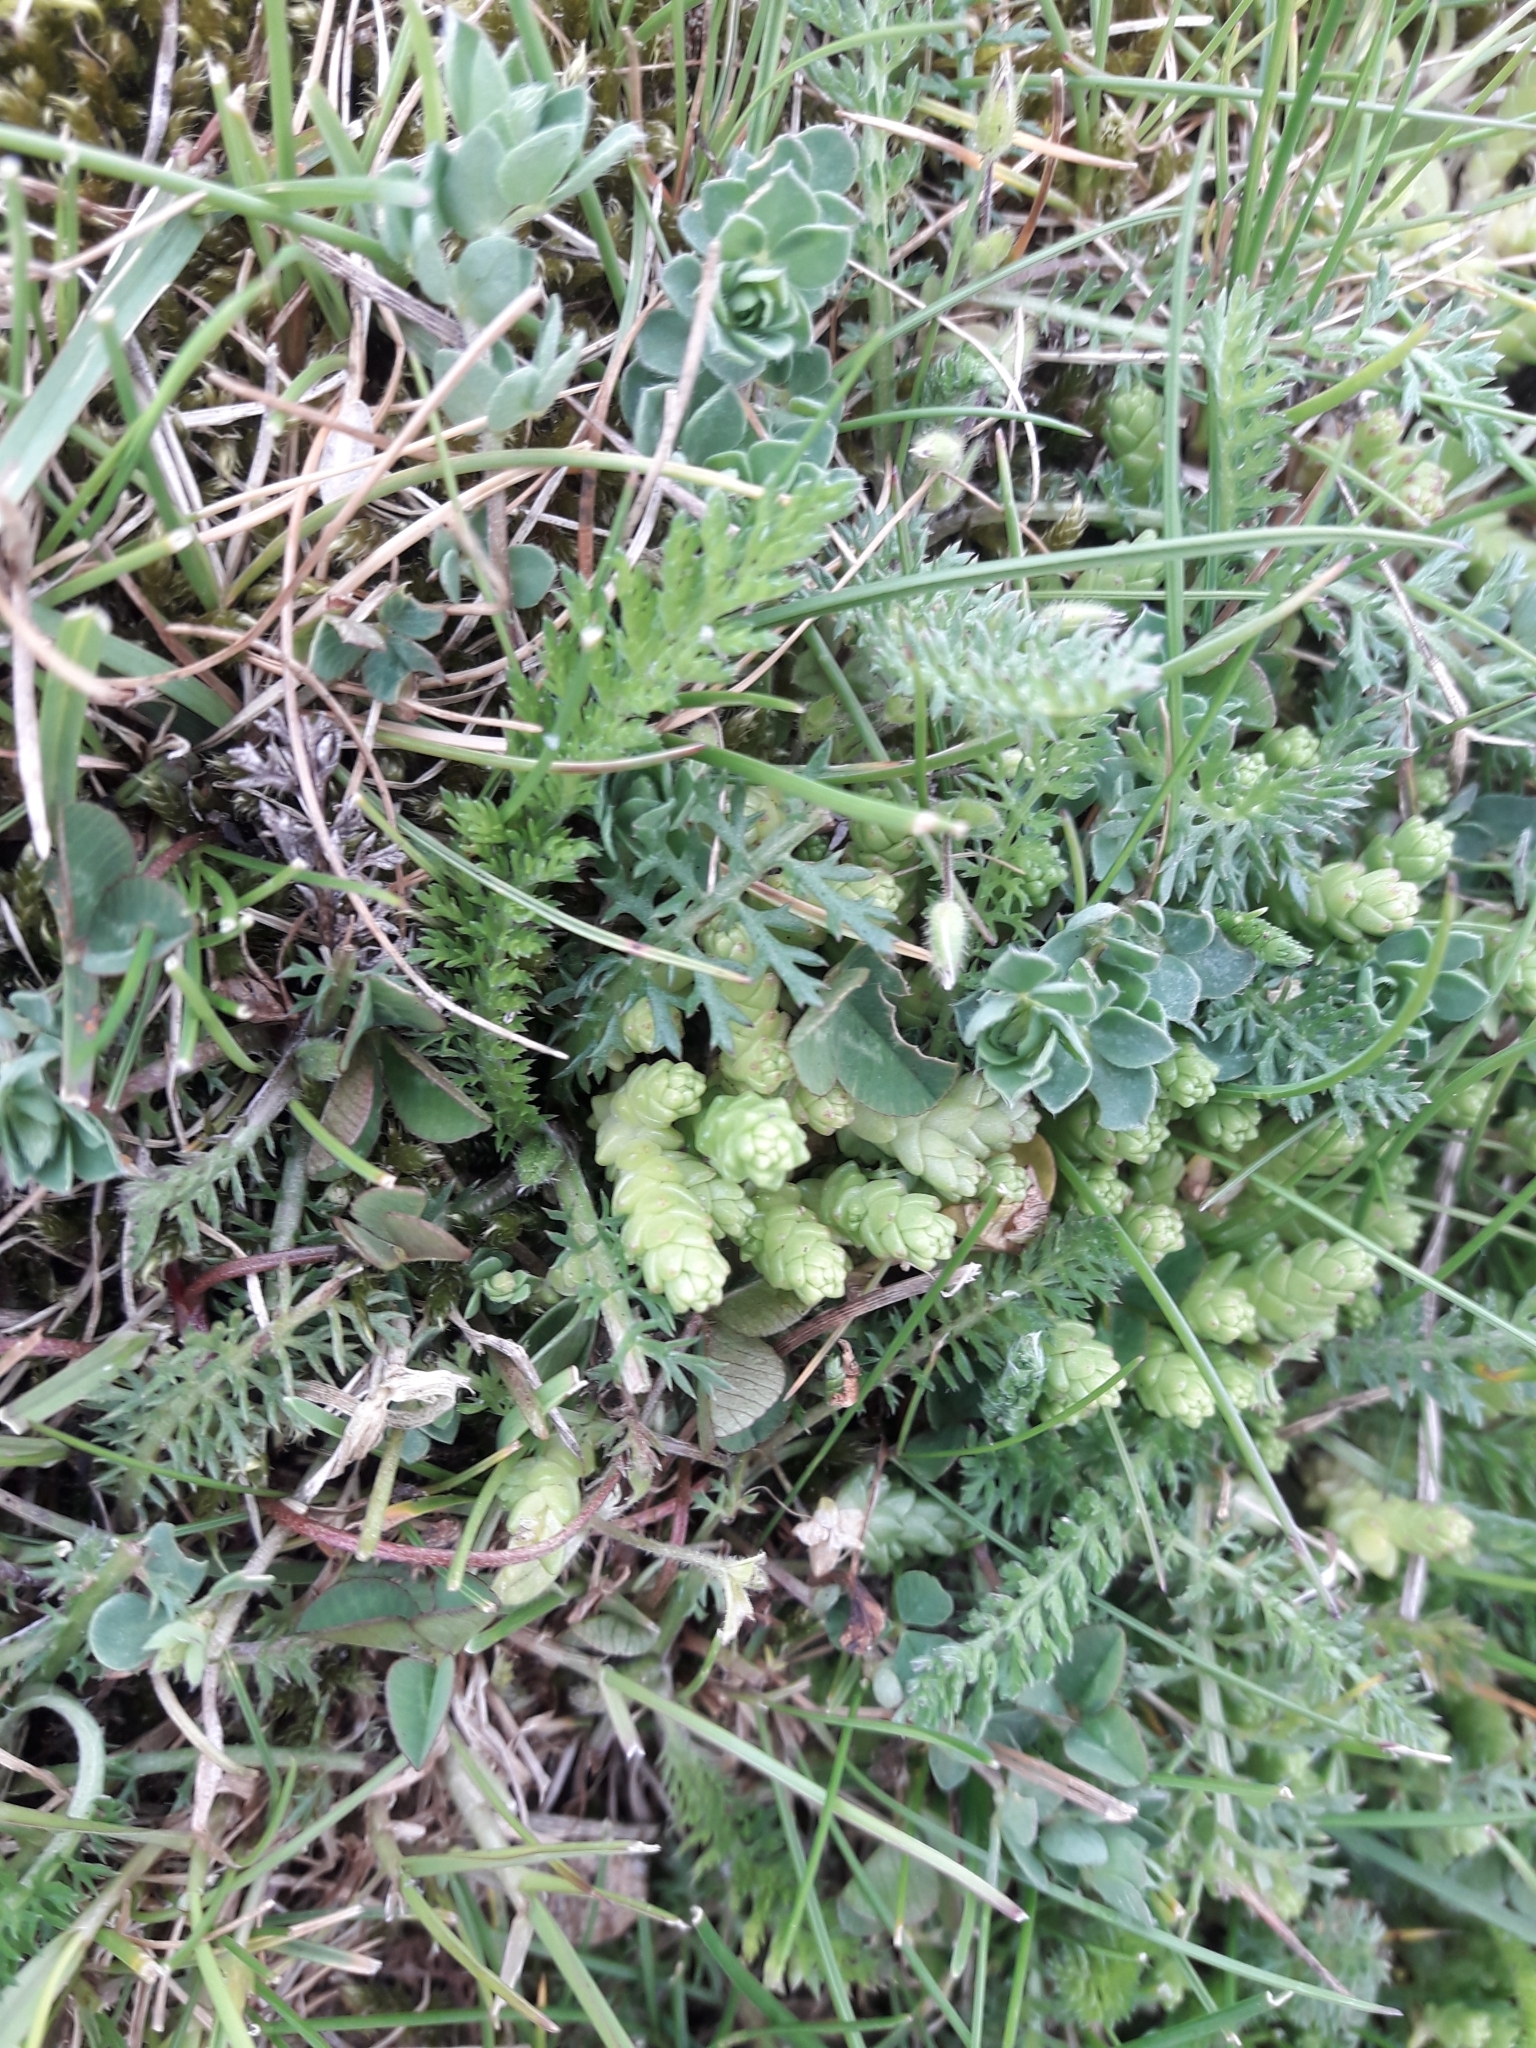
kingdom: Plantae
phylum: Tracheophyta
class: Magnoliopsida
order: Saxifragales
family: Crassulaceae
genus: Sedum
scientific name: Sedum acre
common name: Biting stonecrop
